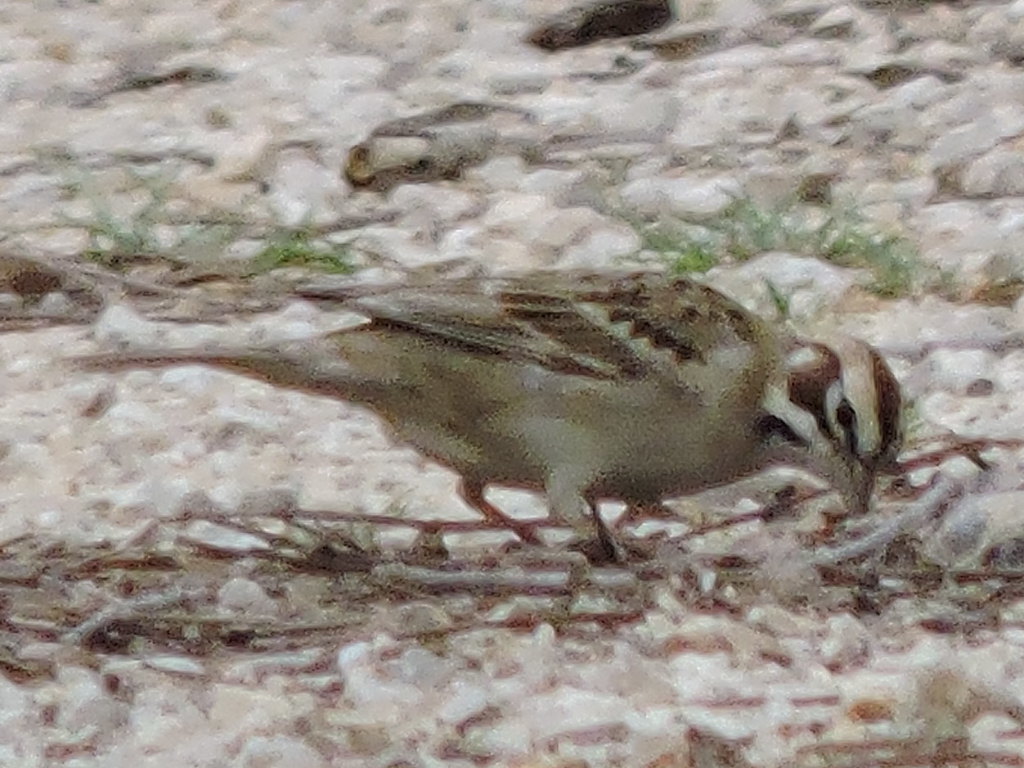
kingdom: Animalia
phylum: Chordata
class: Aves
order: Passeriformes
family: Passerellidae
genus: Chondestes
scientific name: Chondestes grammacus
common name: Lark sparrow
